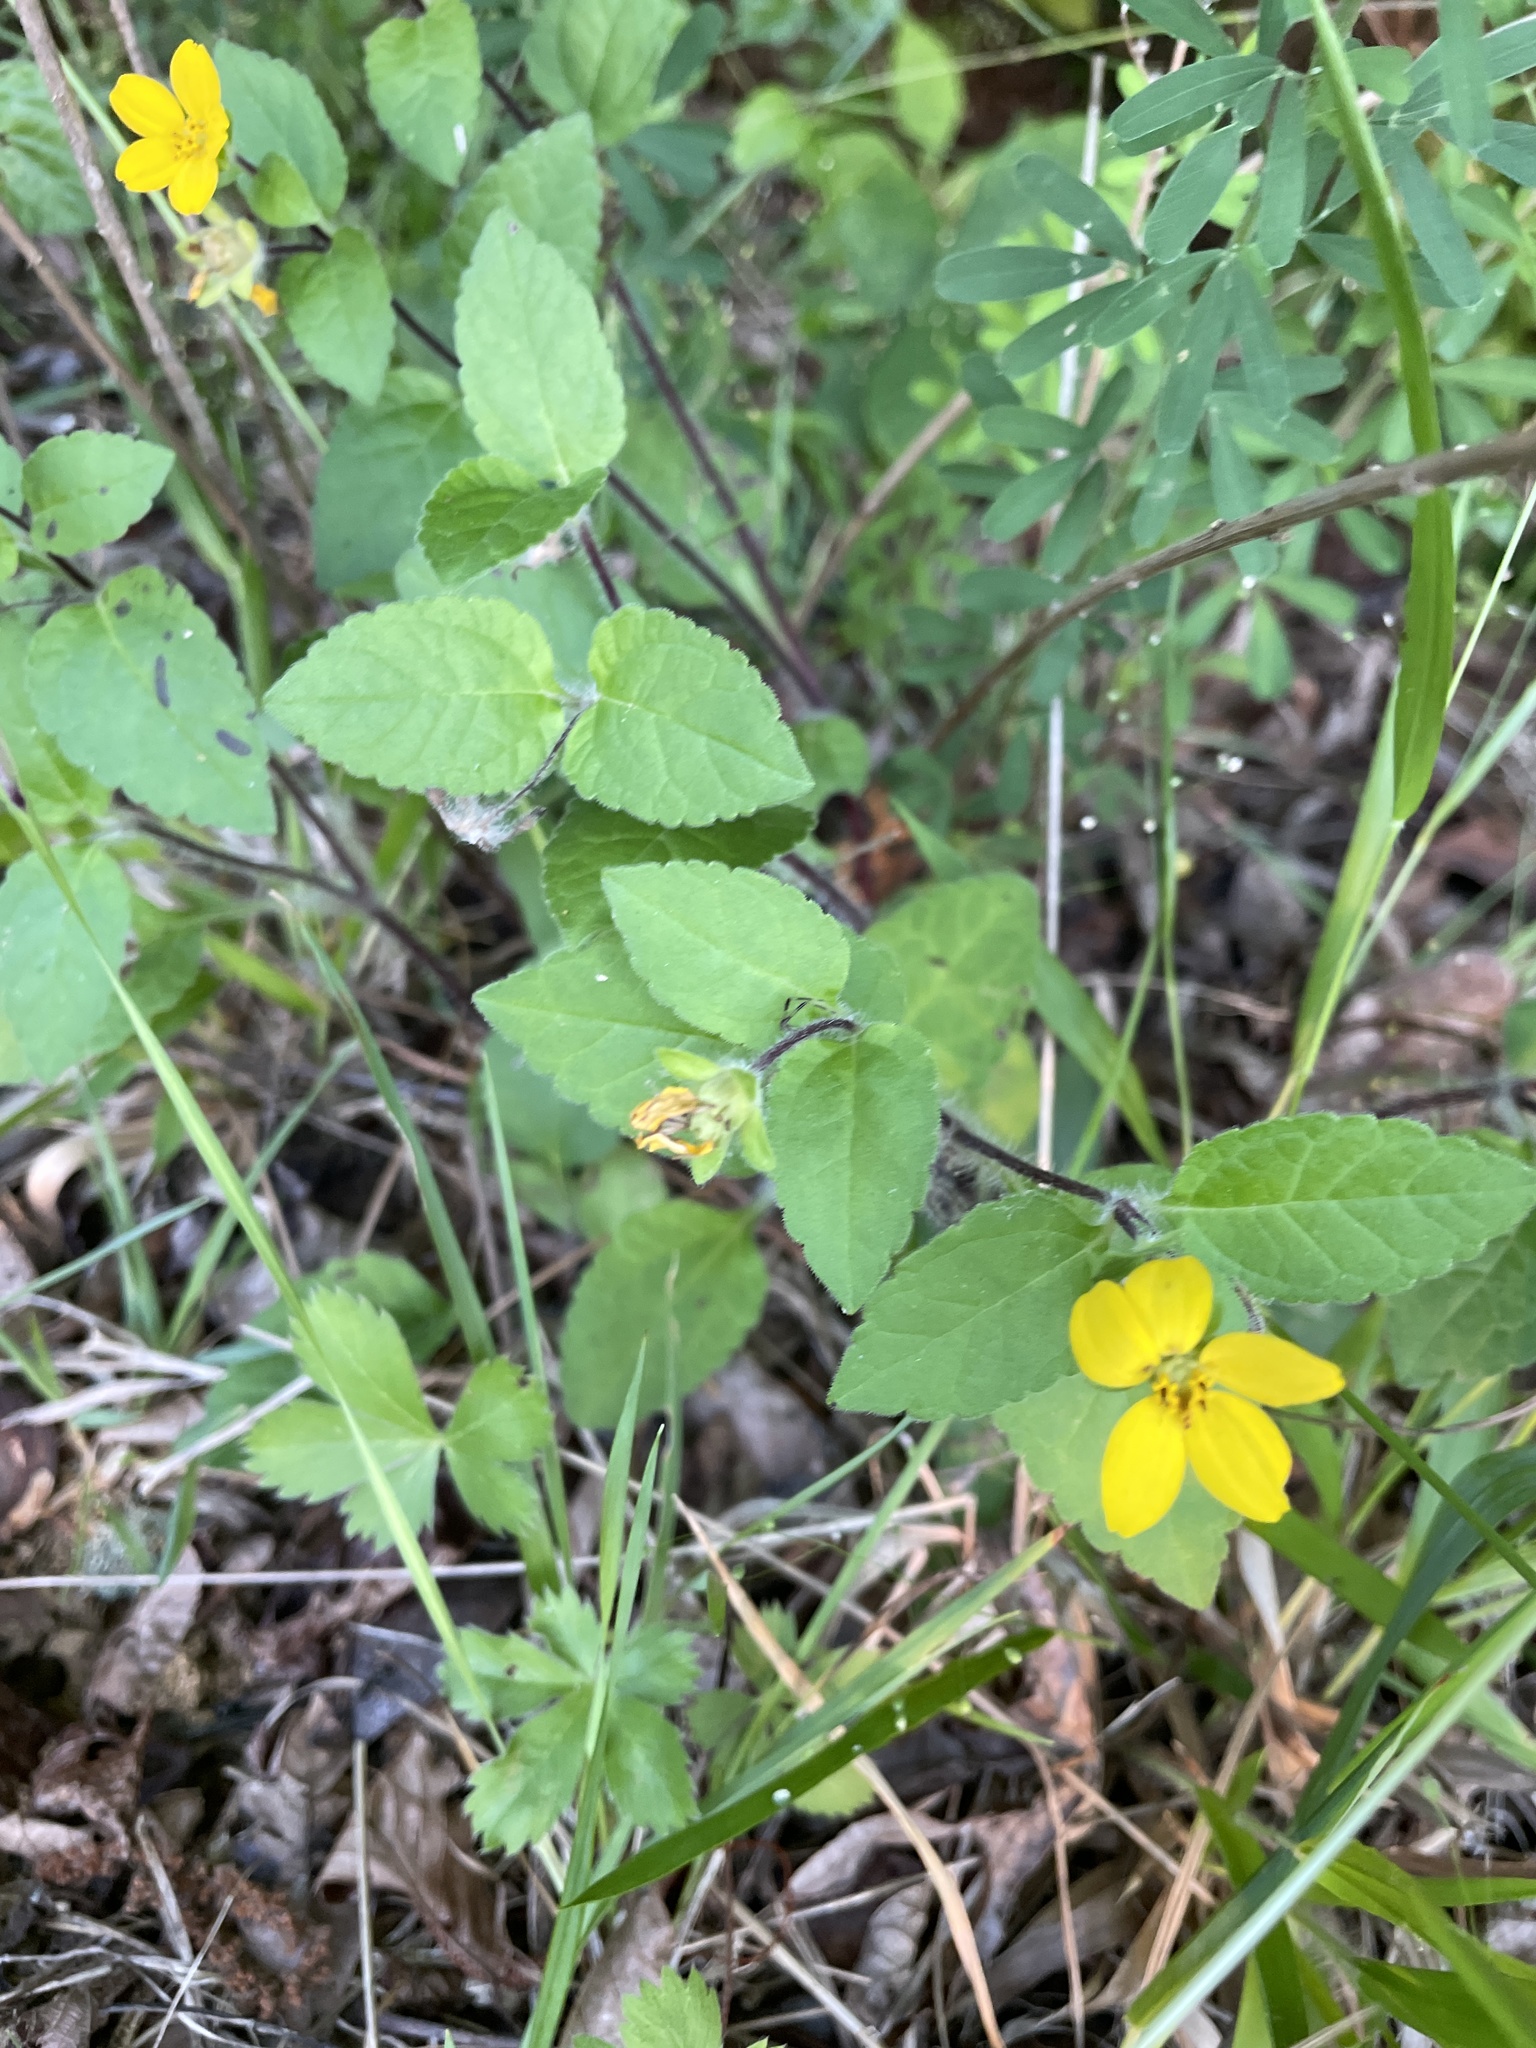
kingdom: Plantae
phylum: Tracheophyta
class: Magnoliopsida
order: Asterales
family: Asteraceae
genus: Chrysogonum
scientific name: Chrysogonum virginianum
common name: Golden-knee
